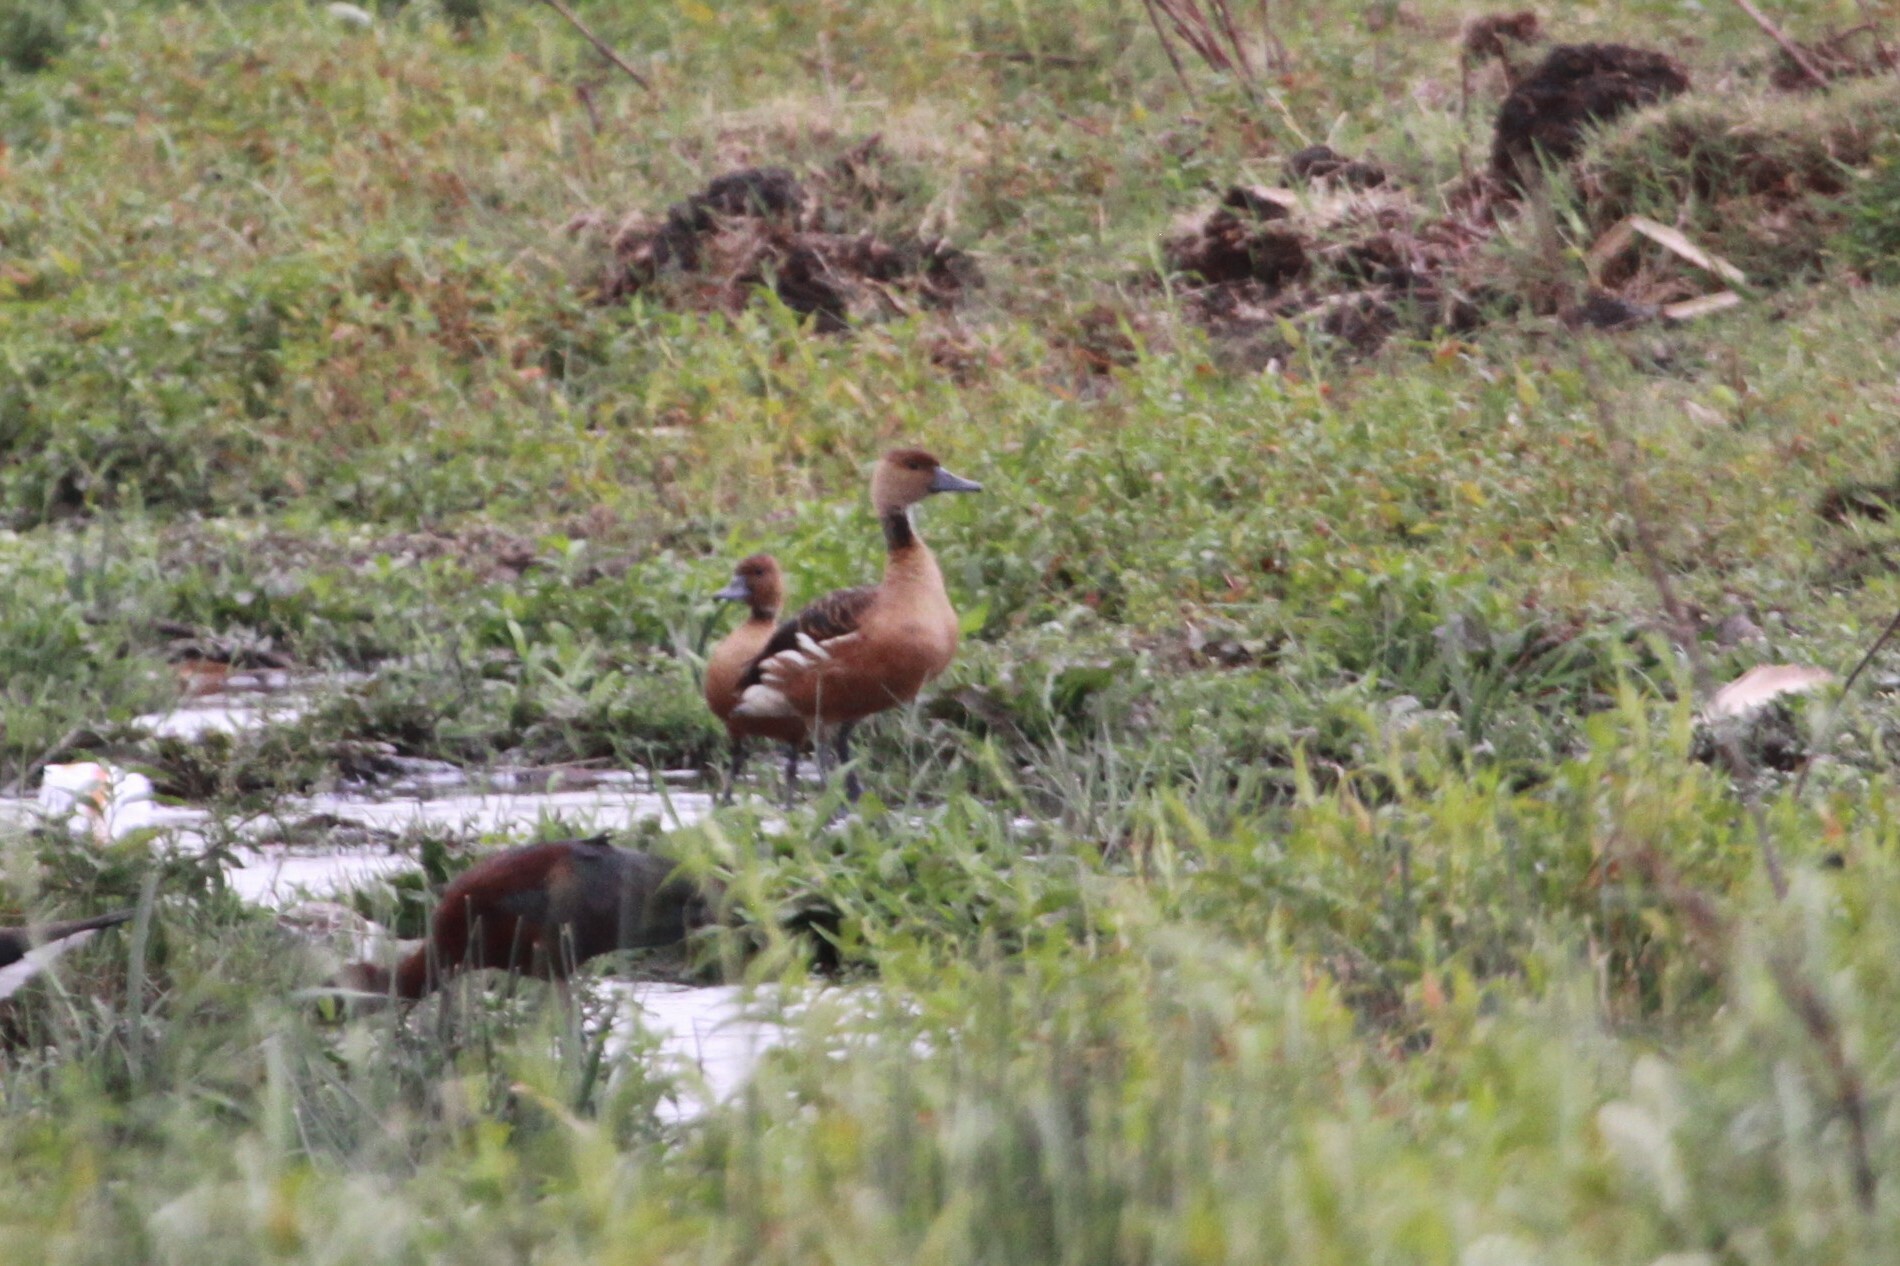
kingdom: Animalia
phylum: Chordata
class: Aves
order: Anseriformes
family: Anatidae
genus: Dendrocygna
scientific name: Dendrocygna bicolor
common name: Fulvous whistling duck
